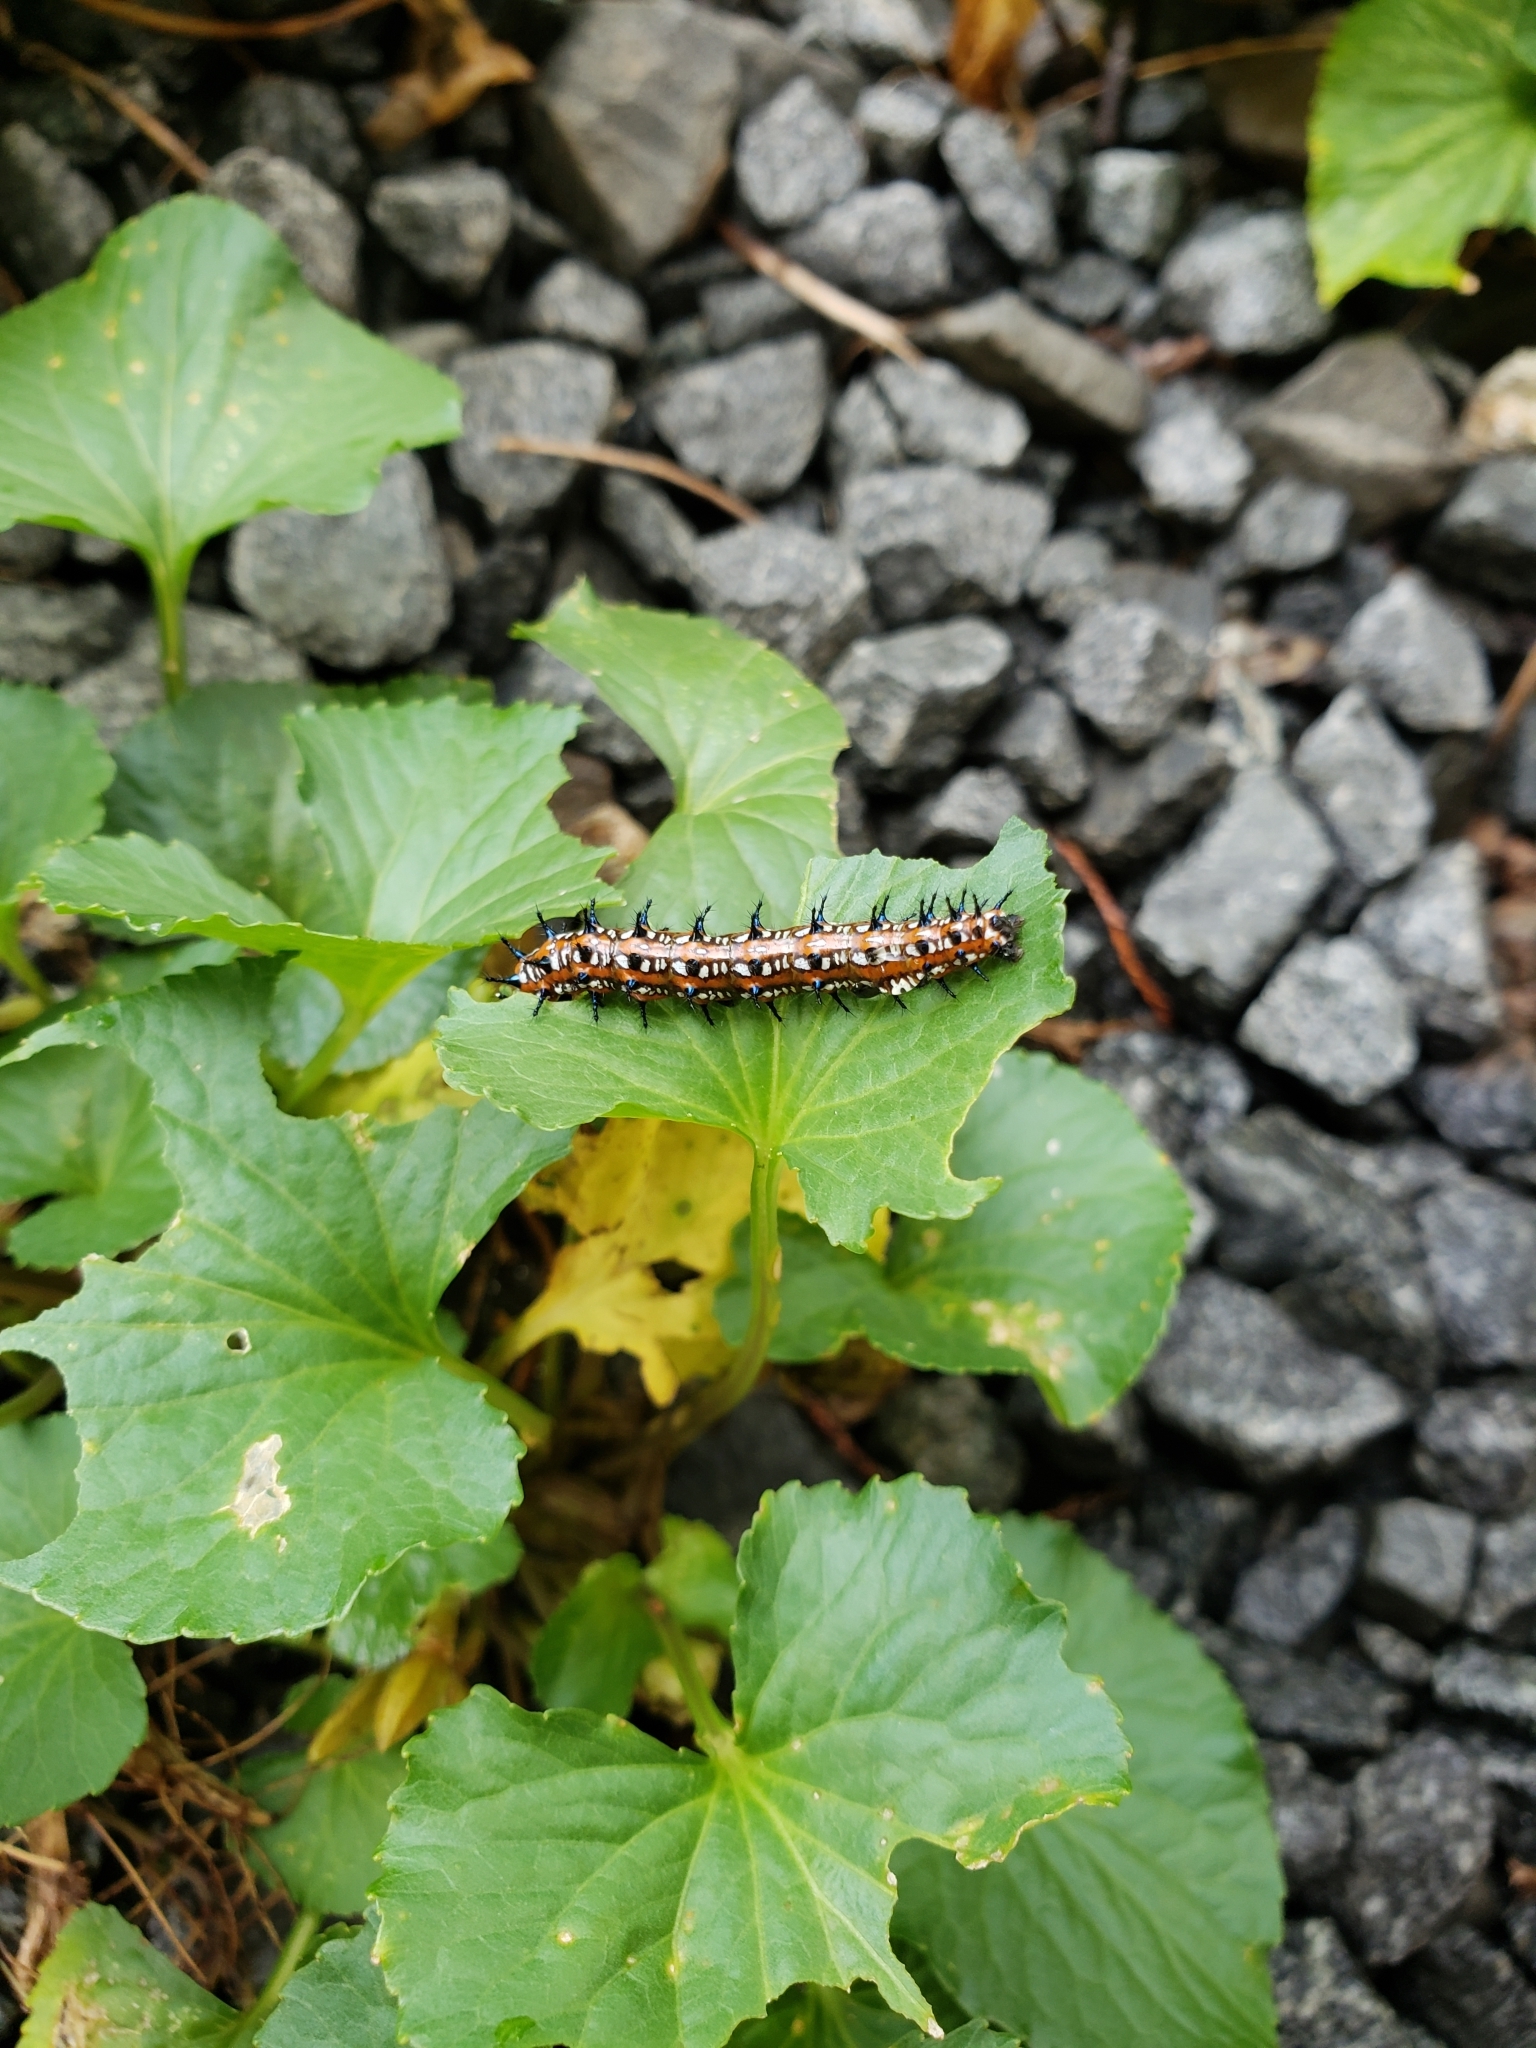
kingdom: Animalia
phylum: Arthropoda
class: Insecta
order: Lepidoptera
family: Nymphalidae
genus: Euptoieta
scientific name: Euptoieta claudia
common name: Variegated fritillary
